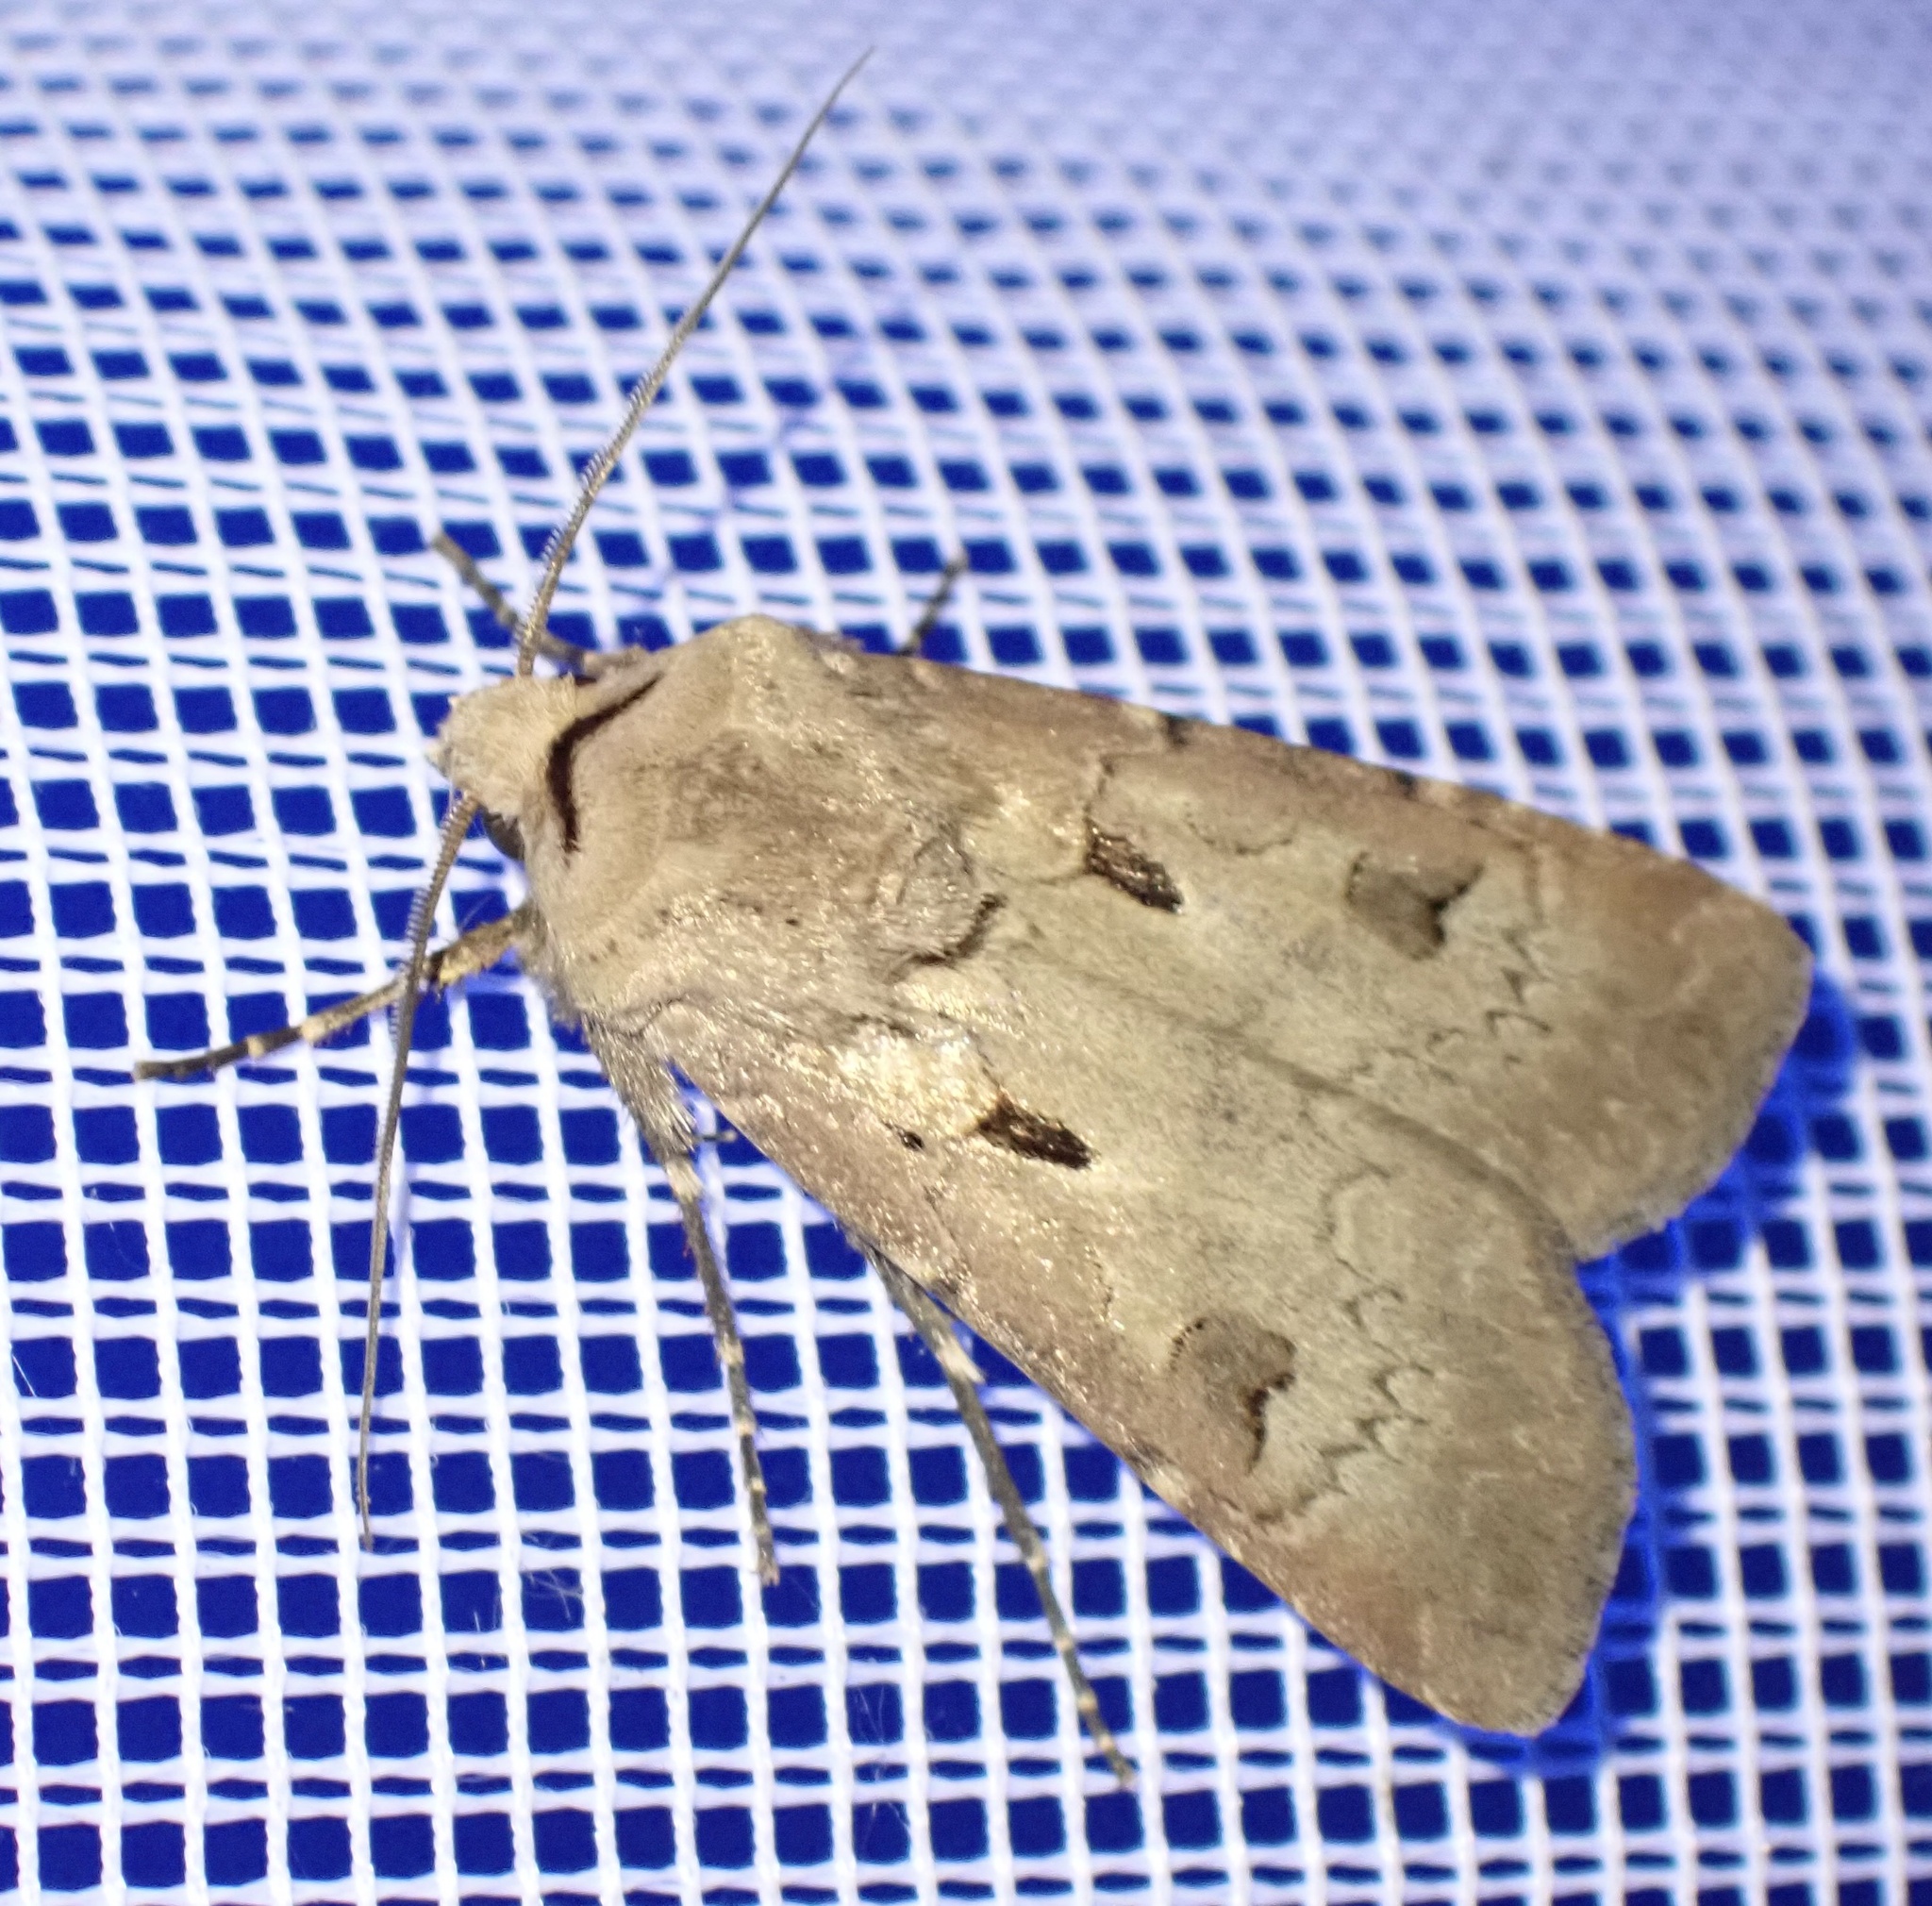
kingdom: Animalia
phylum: Arthropoda
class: Insecta
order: Lepidoptera
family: Noctuidae
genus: Agrotis
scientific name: Agrotis exclamationis
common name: Heart and dart
